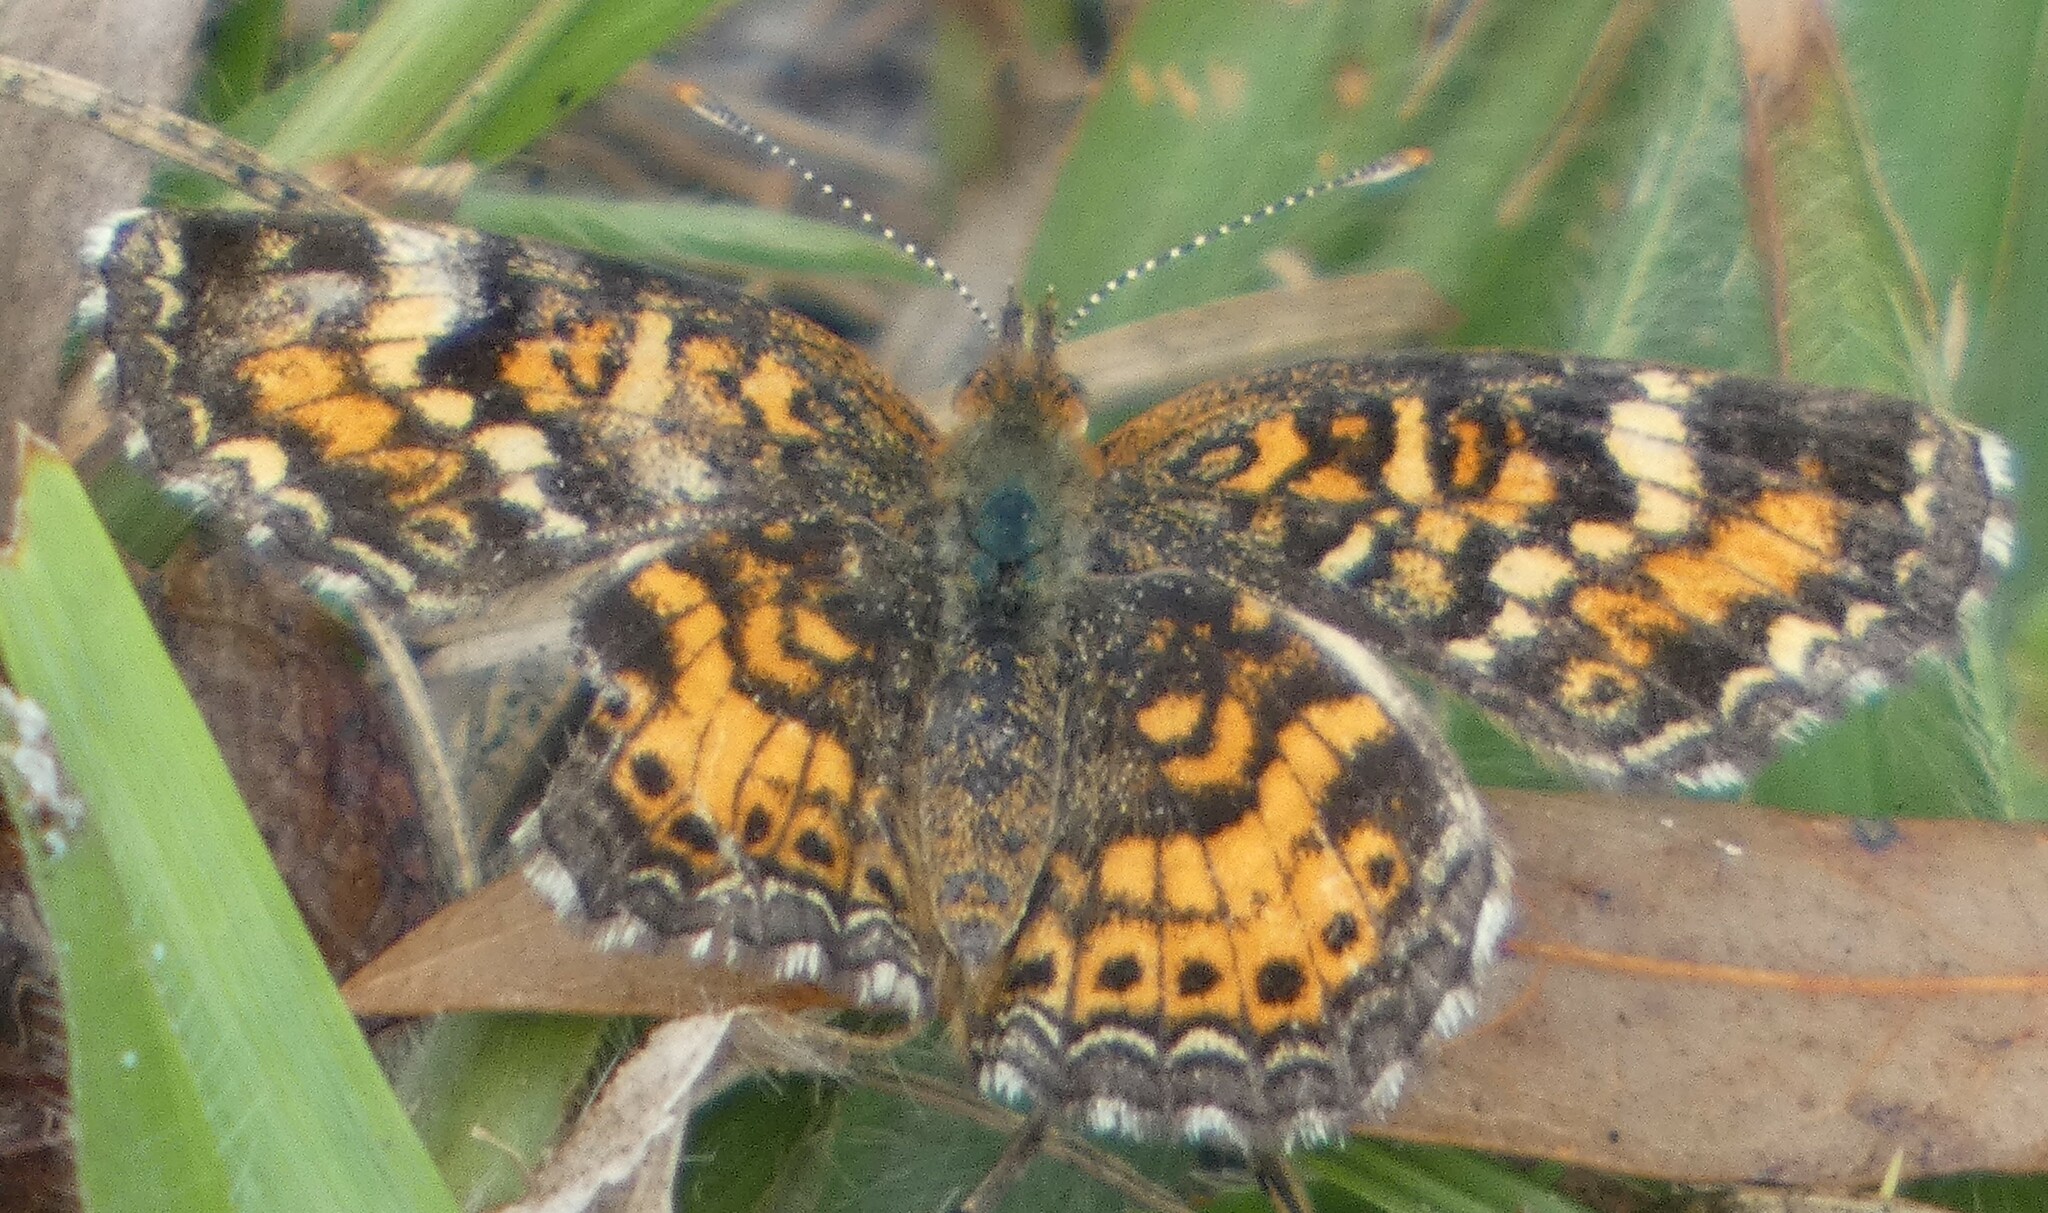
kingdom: Animalia
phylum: Arthropoda
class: Insecta
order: Lepidoptera
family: Nymphalidae
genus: Phyciodes
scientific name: Phyciodes phaon
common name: Phaon crescent
